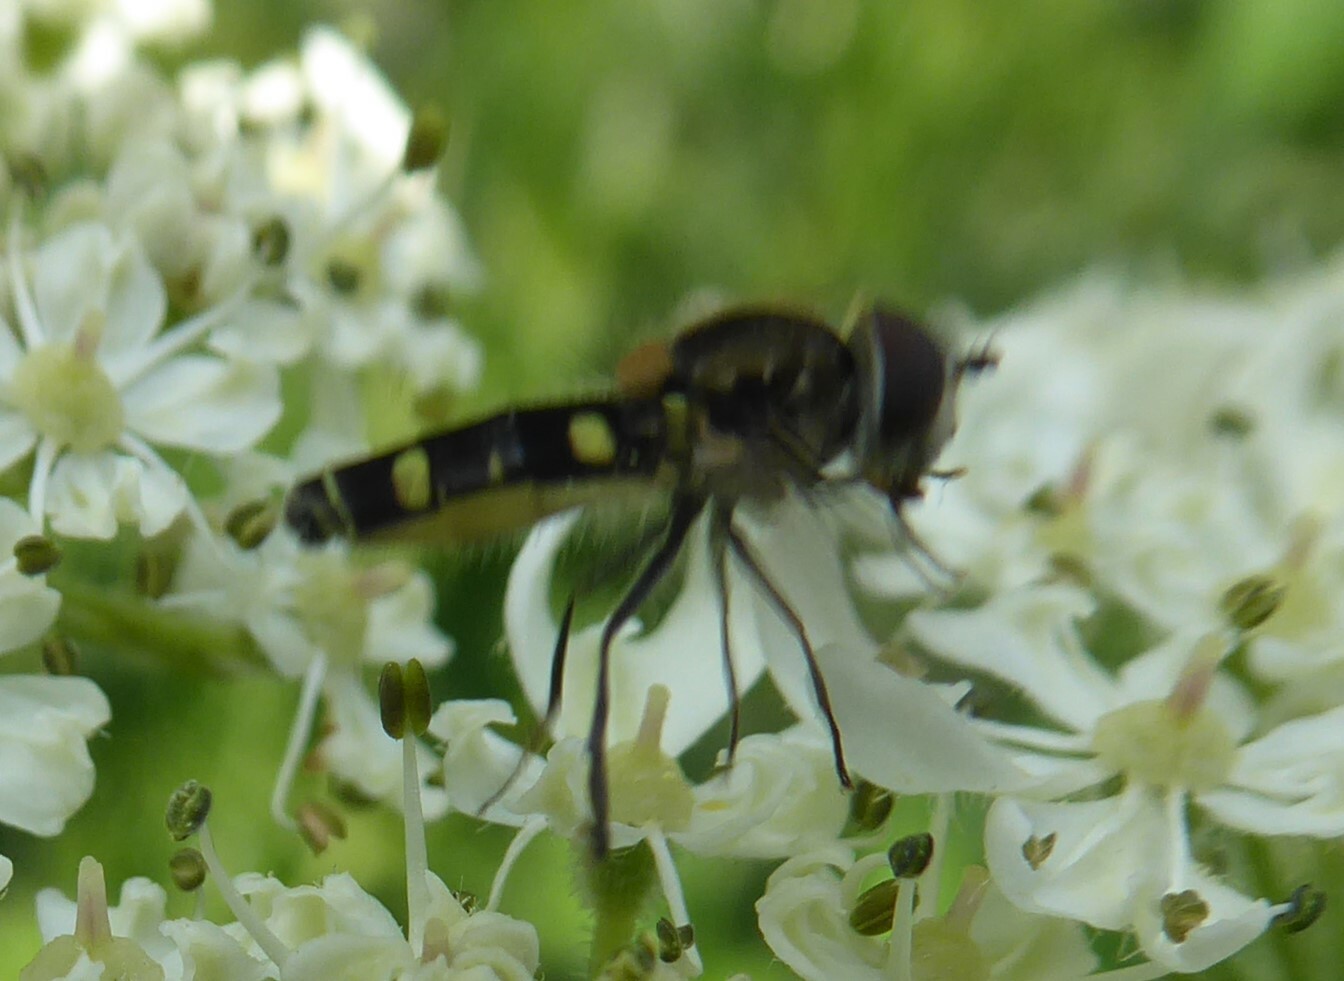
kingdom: Animalia
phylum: Arthropoda
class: Insecta
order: Diptera
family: Syrphidae
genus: Melangyna
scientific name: Melangyna
